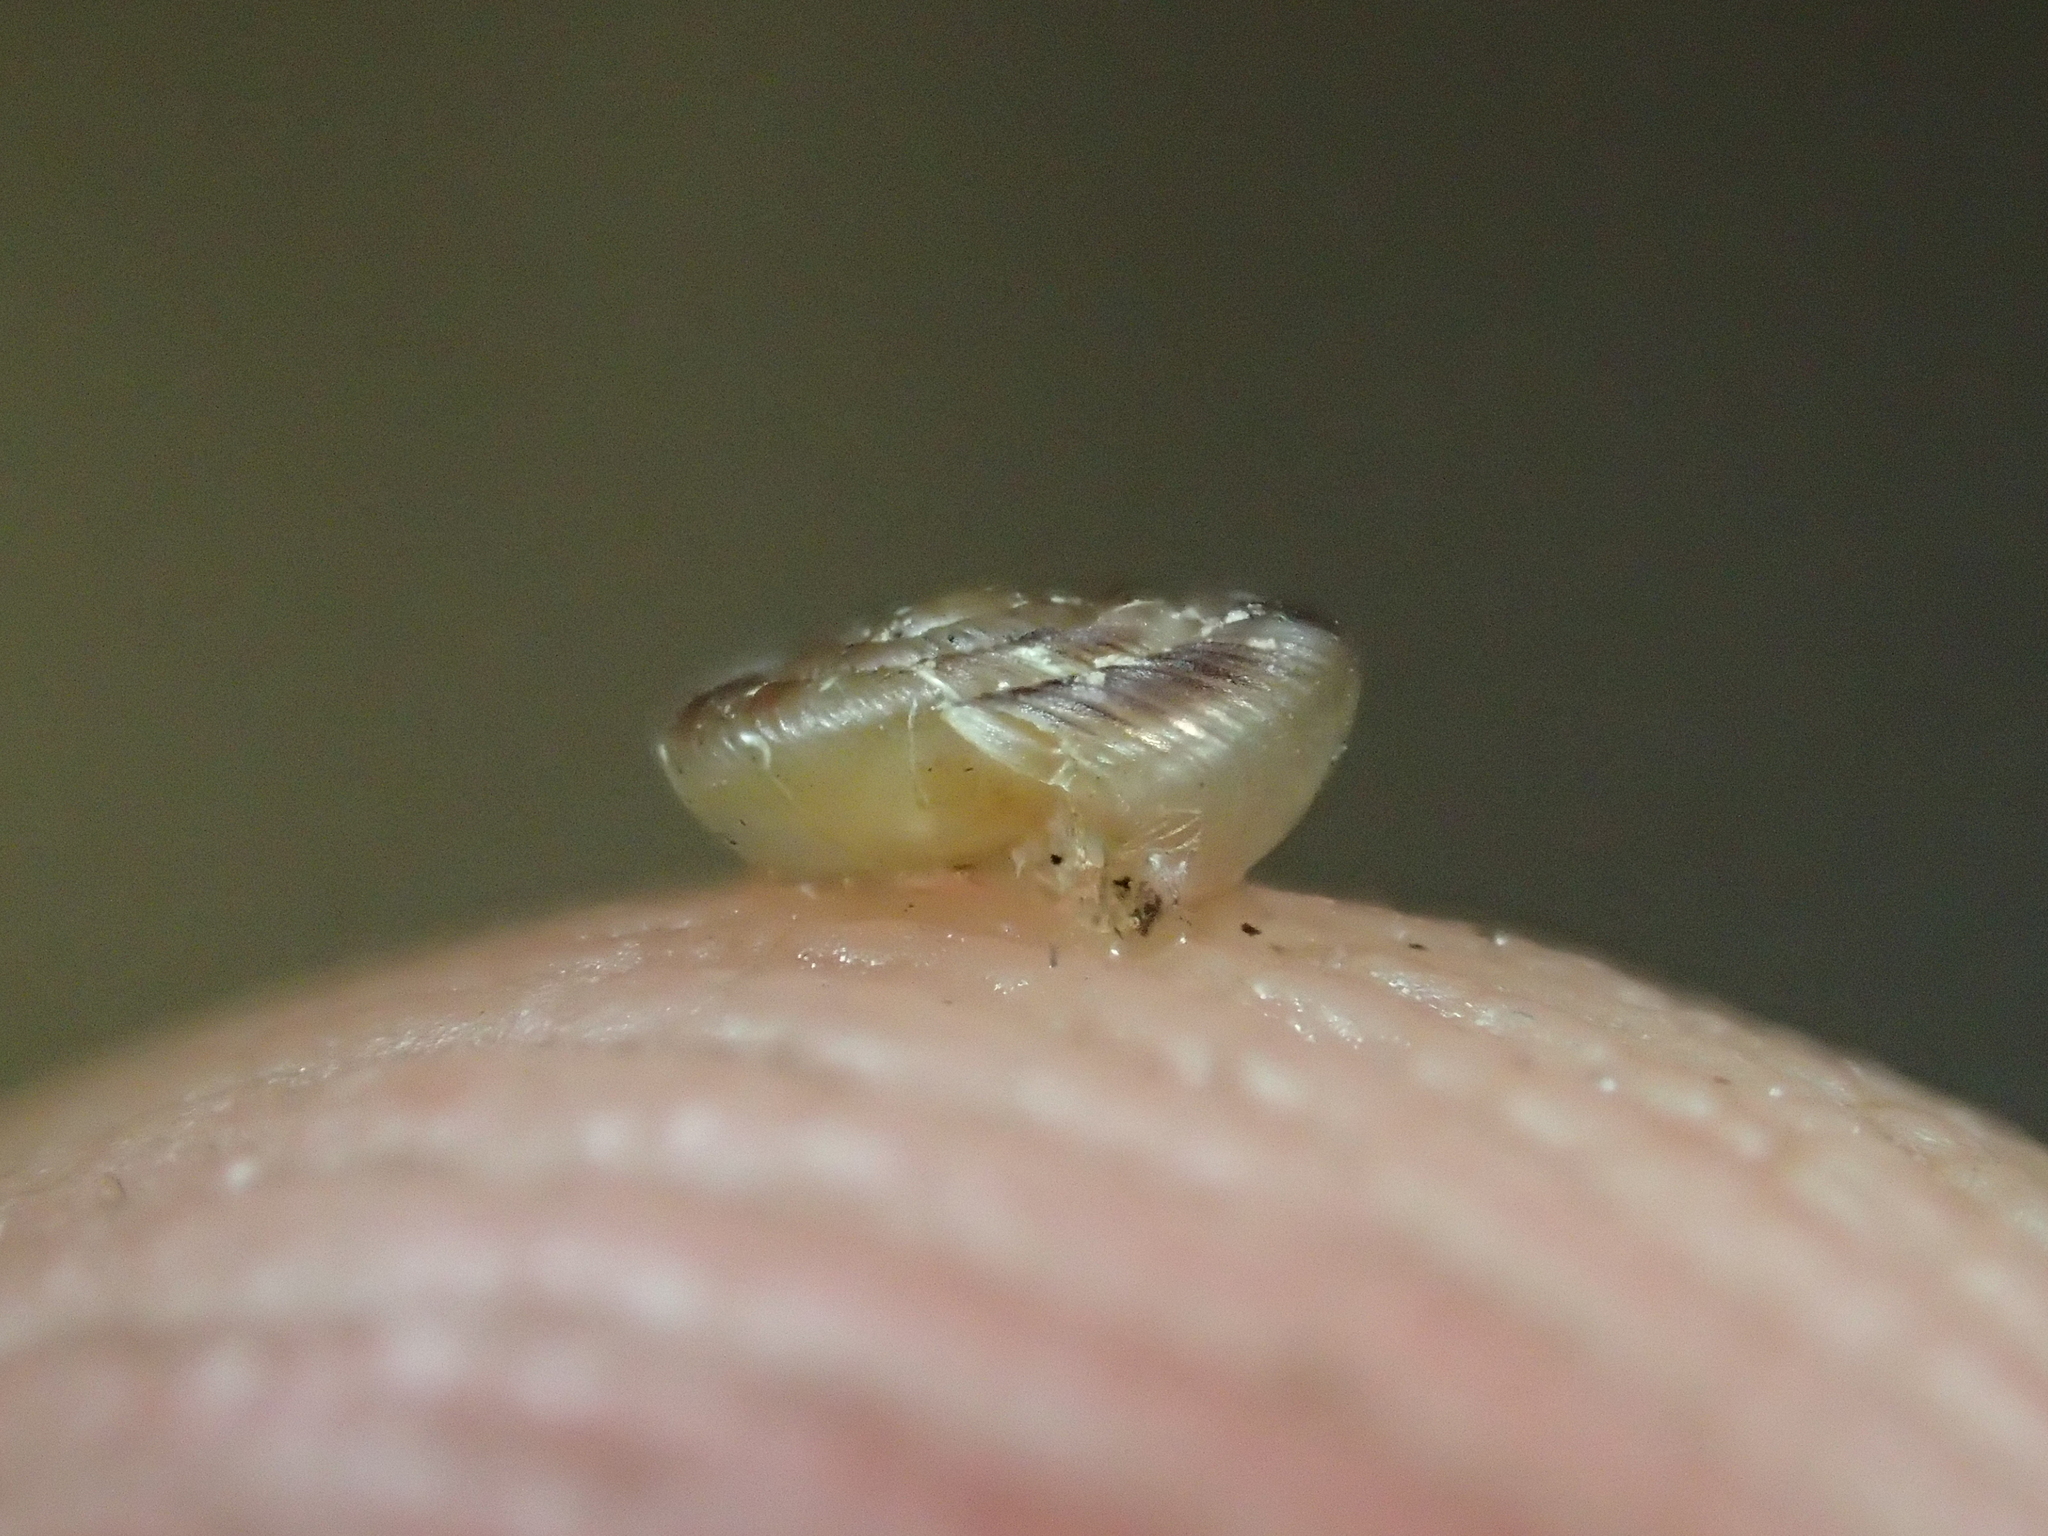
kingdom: Animalia
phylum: Mollusca
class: Gastropoda
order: Stylommatophora
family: Discidae
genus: Discus
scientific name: Discus rotundatus
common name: Rounded snail
